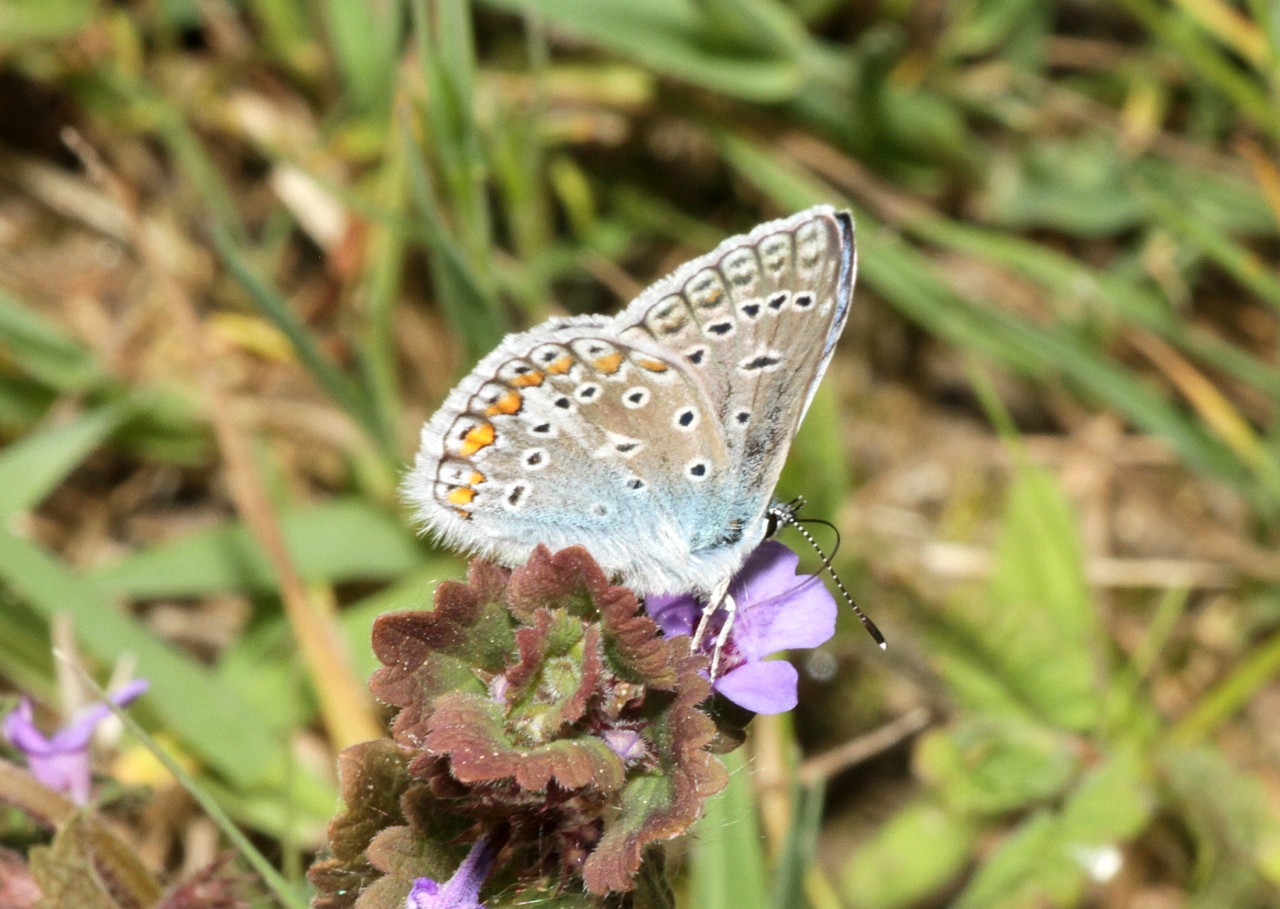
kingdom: Animalia
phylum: Arthropoda
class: Insecta
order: Lepidoptera
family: Lycaenidae
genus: Polyommatus
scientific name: Polyommatus icarus
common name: Common blue
